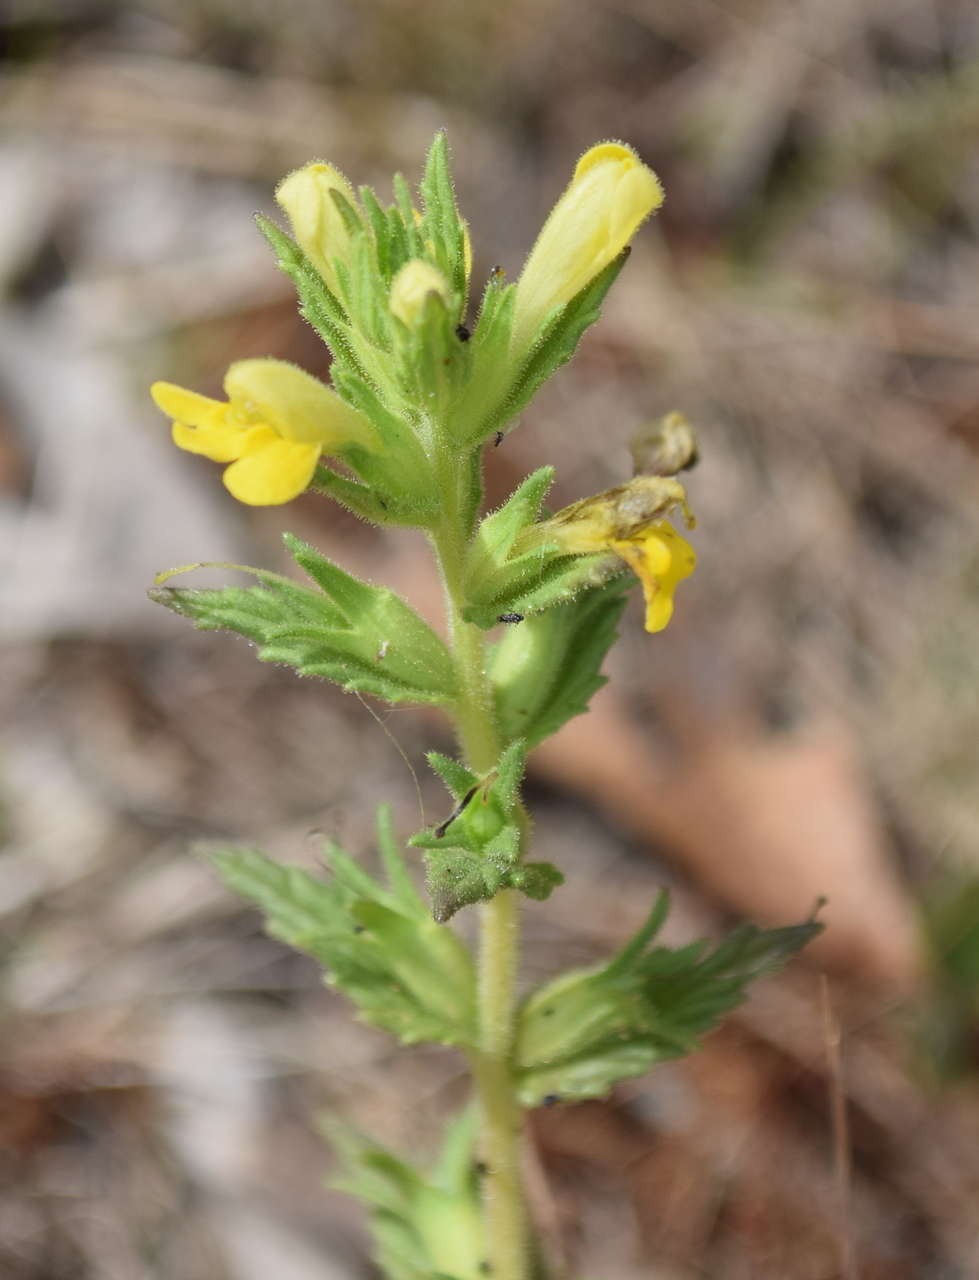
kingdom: Plantae
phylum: Tracheophyta
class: Magnoliopsida
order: Lamiales
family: Orobanchaceae
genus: Bellardia
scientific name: Bellardia viscosa
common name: Sticky parentucellia
